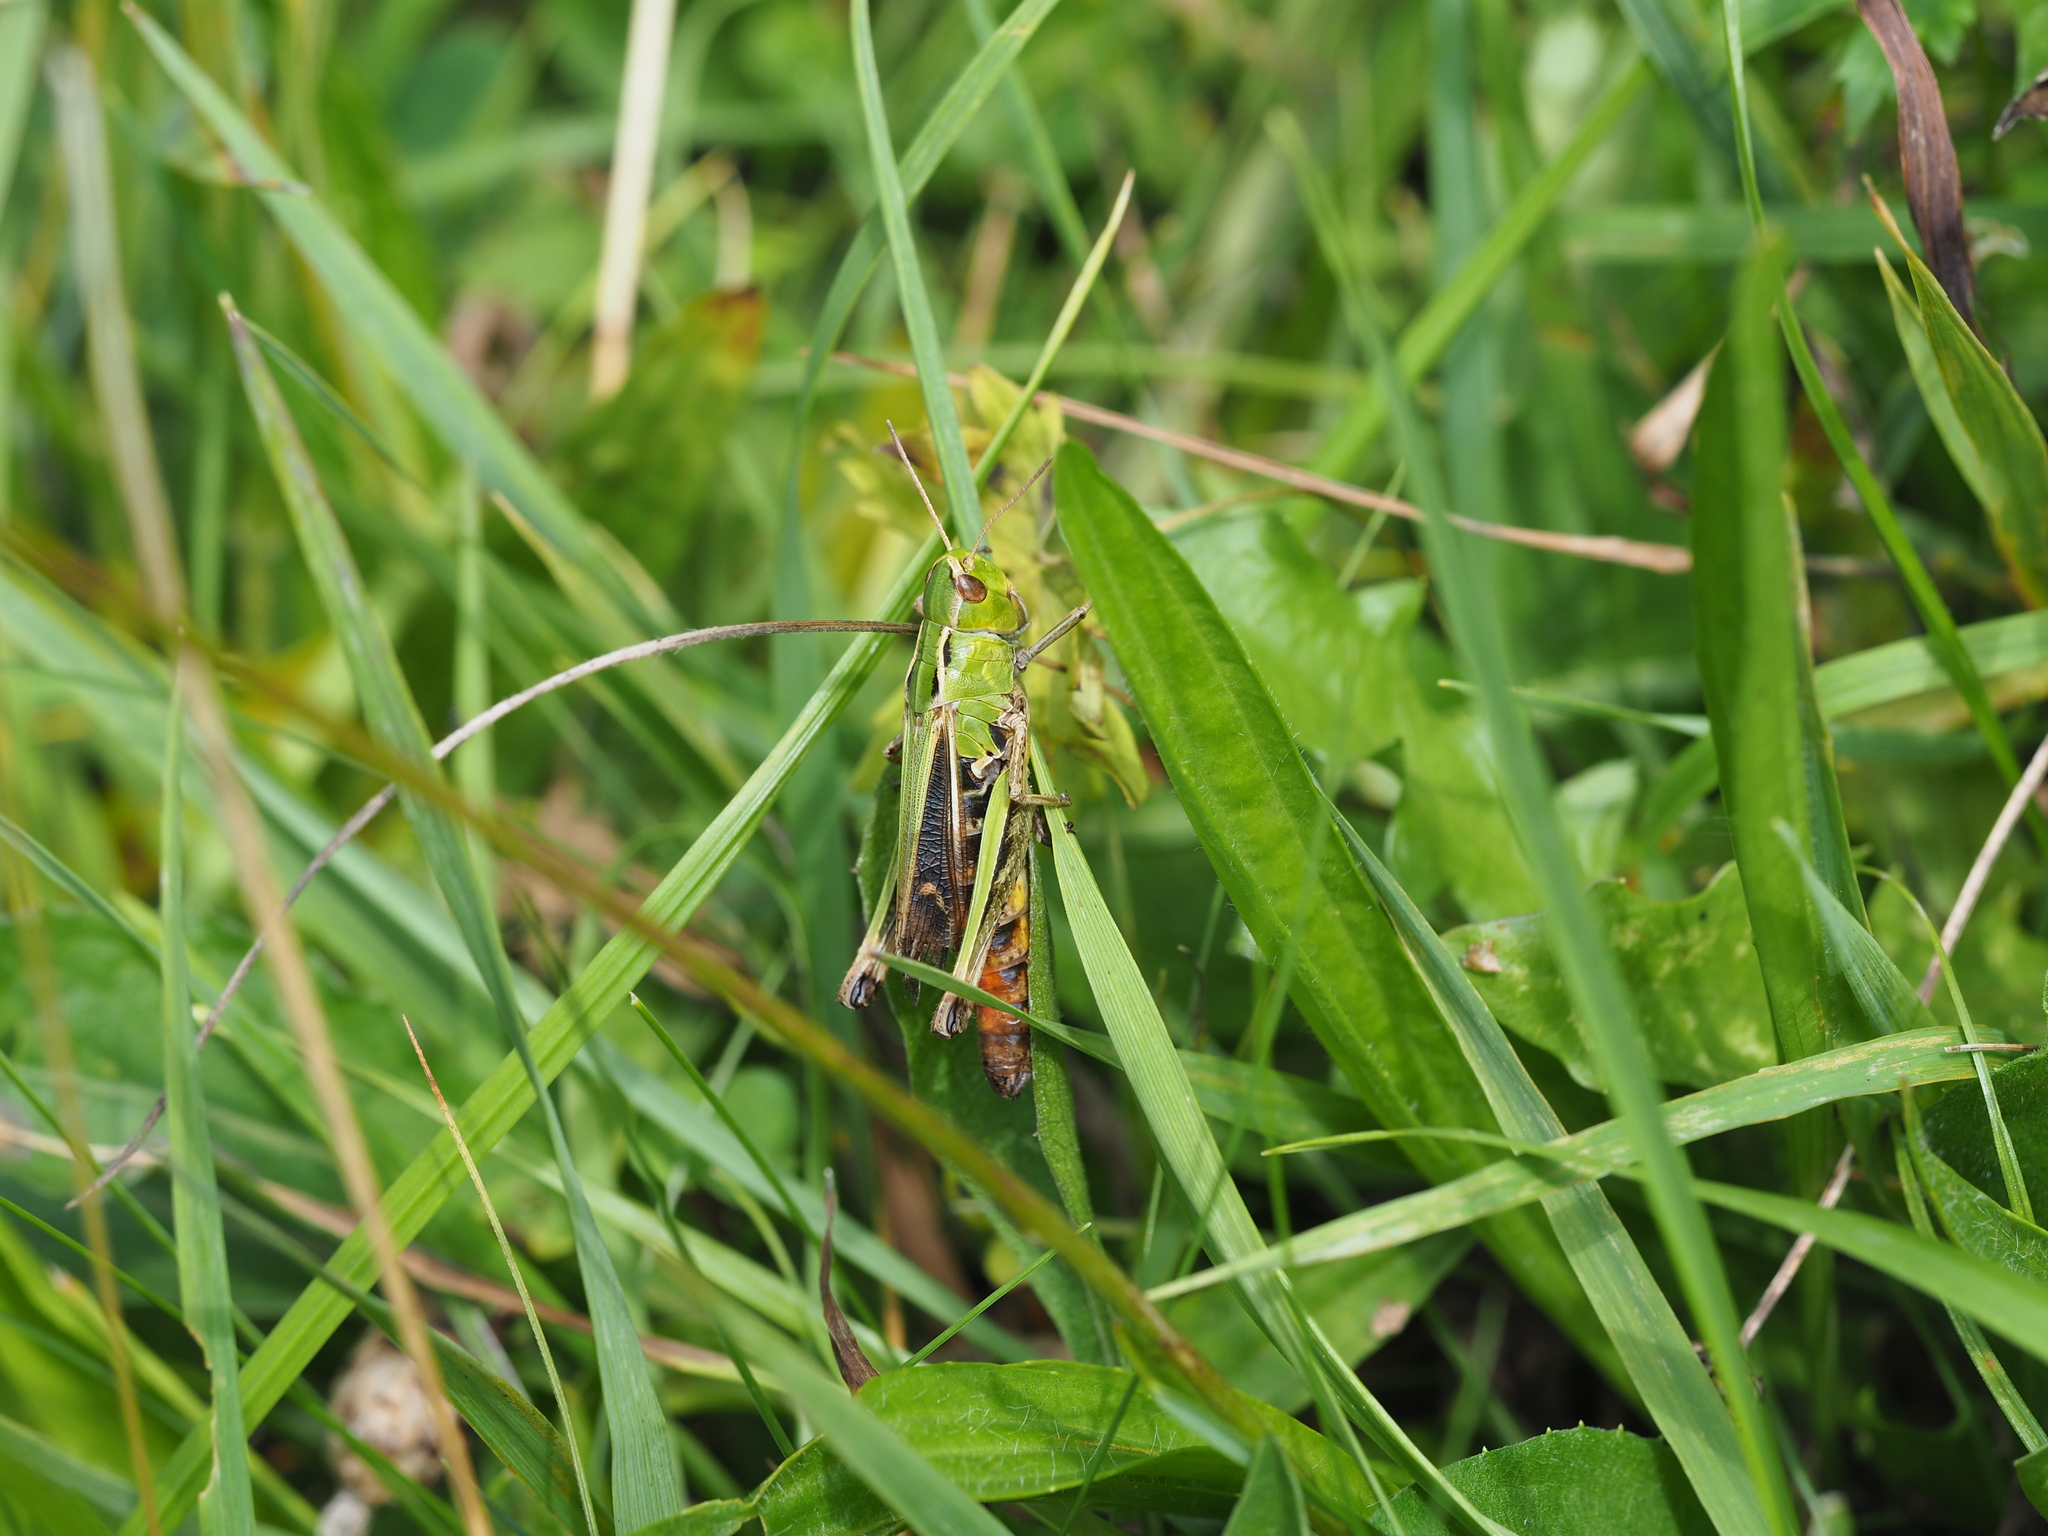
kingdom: Animalia
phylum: Arthropoda
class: Insecta
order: Orthoptera
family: Acrididae
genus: Stenobothrus
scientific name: Stenobothrus lineatus
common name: Stripe-winged grasshopper
